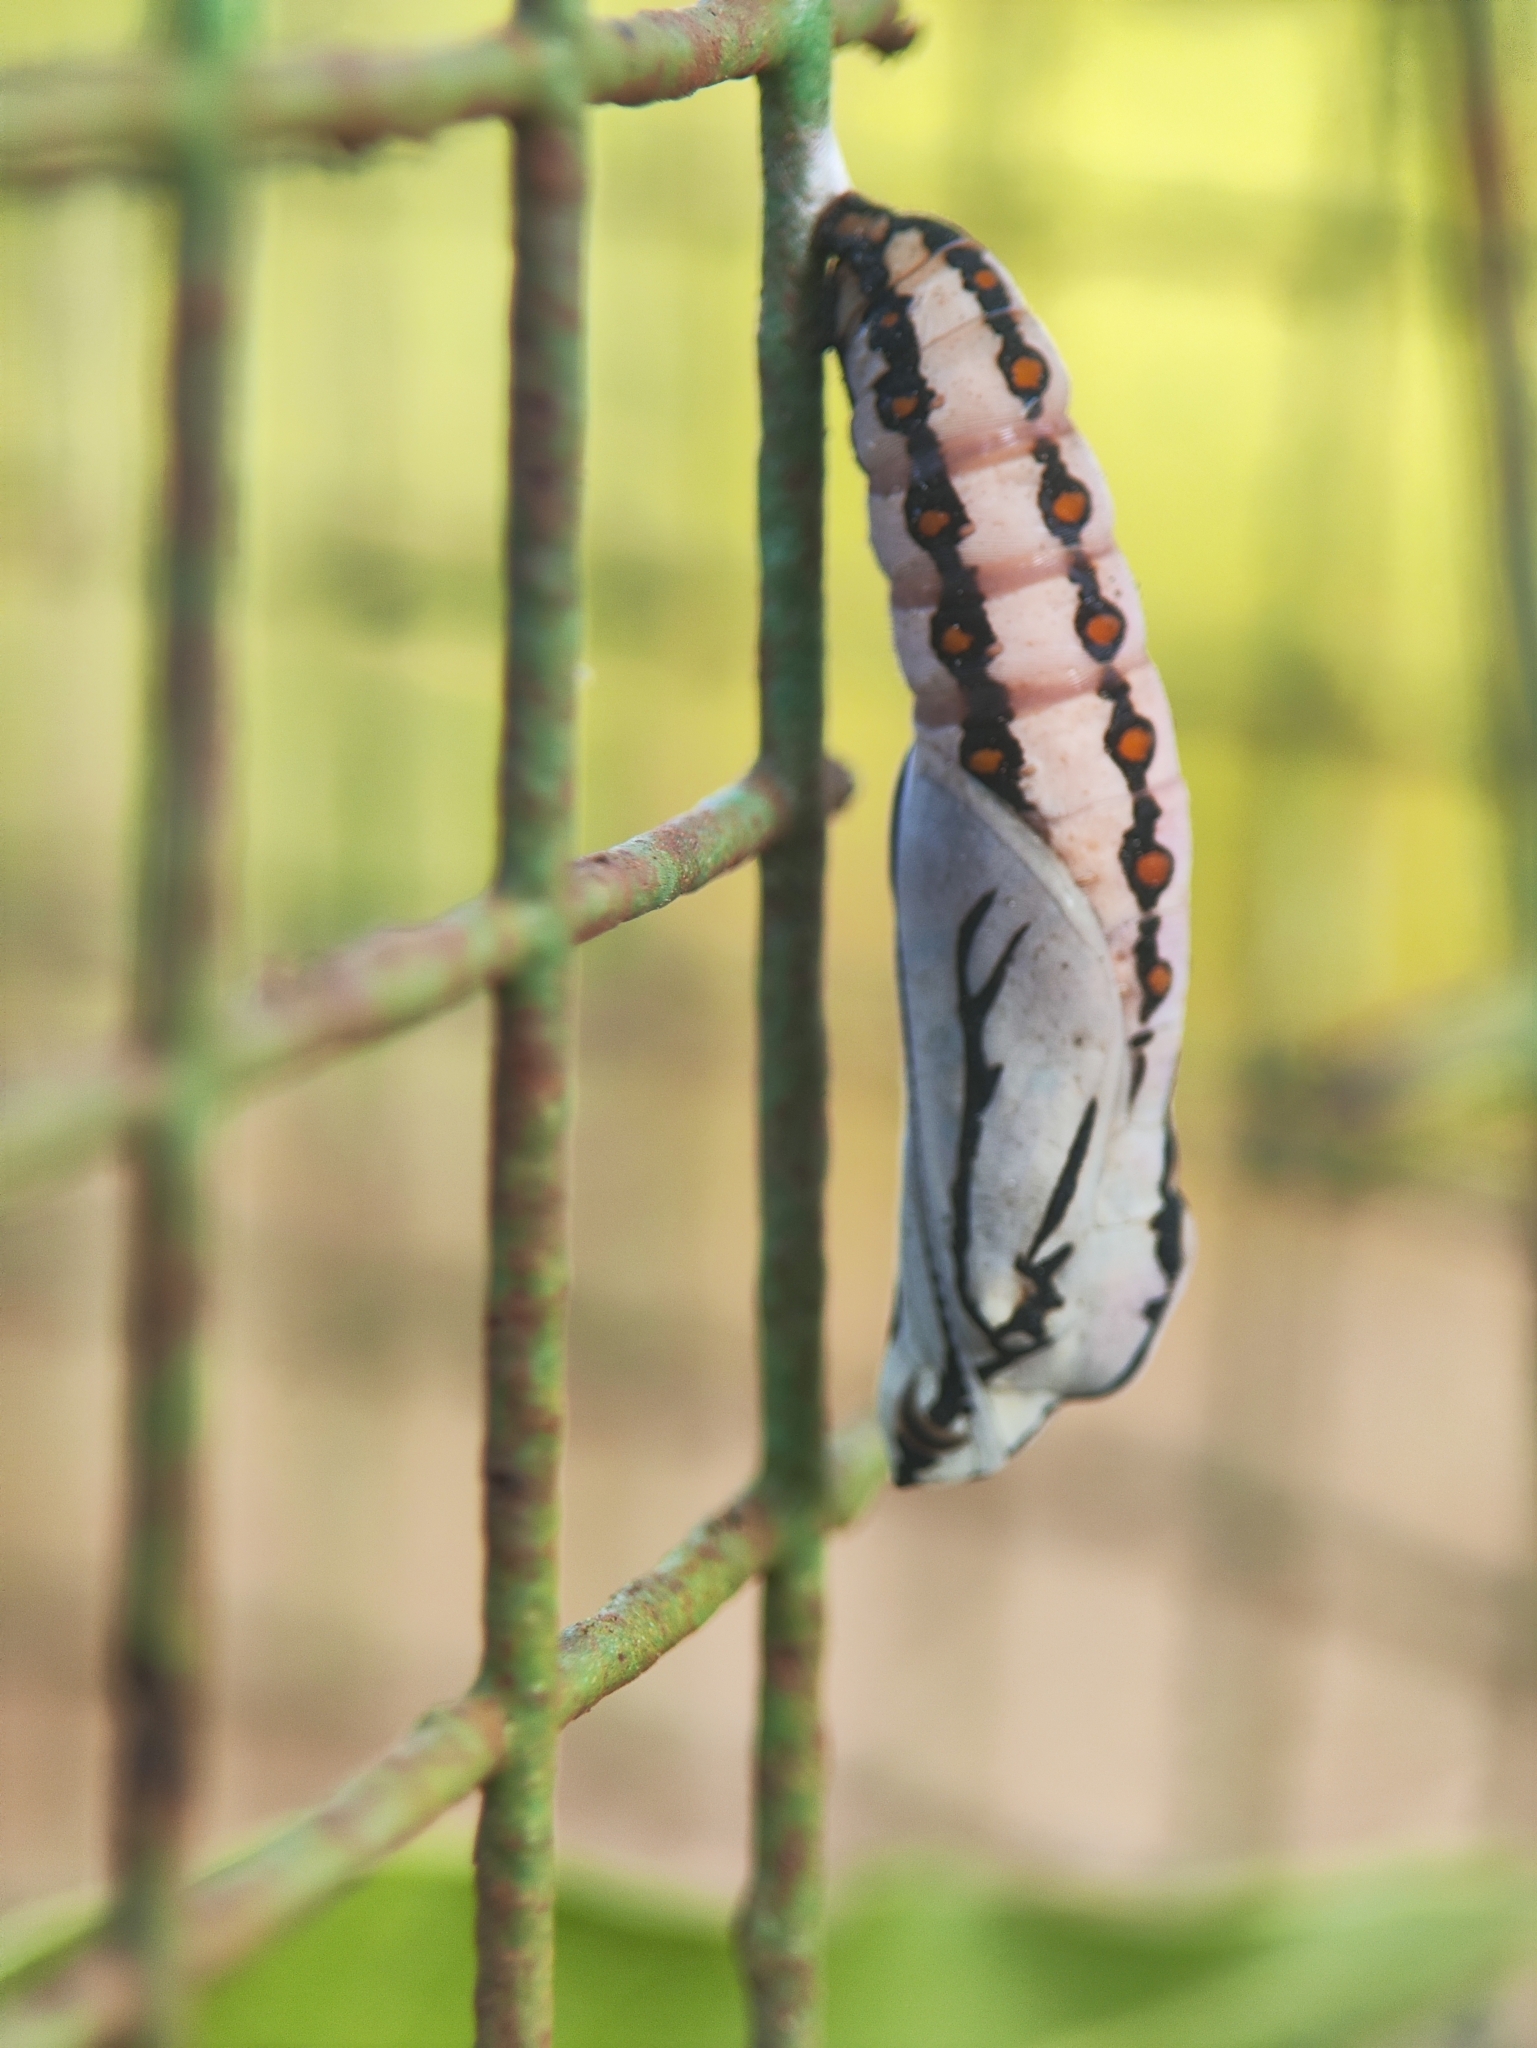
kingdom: Animalia
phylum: Arthropoda
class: Insecta
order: Lepidoptera
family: Nymphalidae
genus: Acraea
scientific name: Acraea terpsicore
